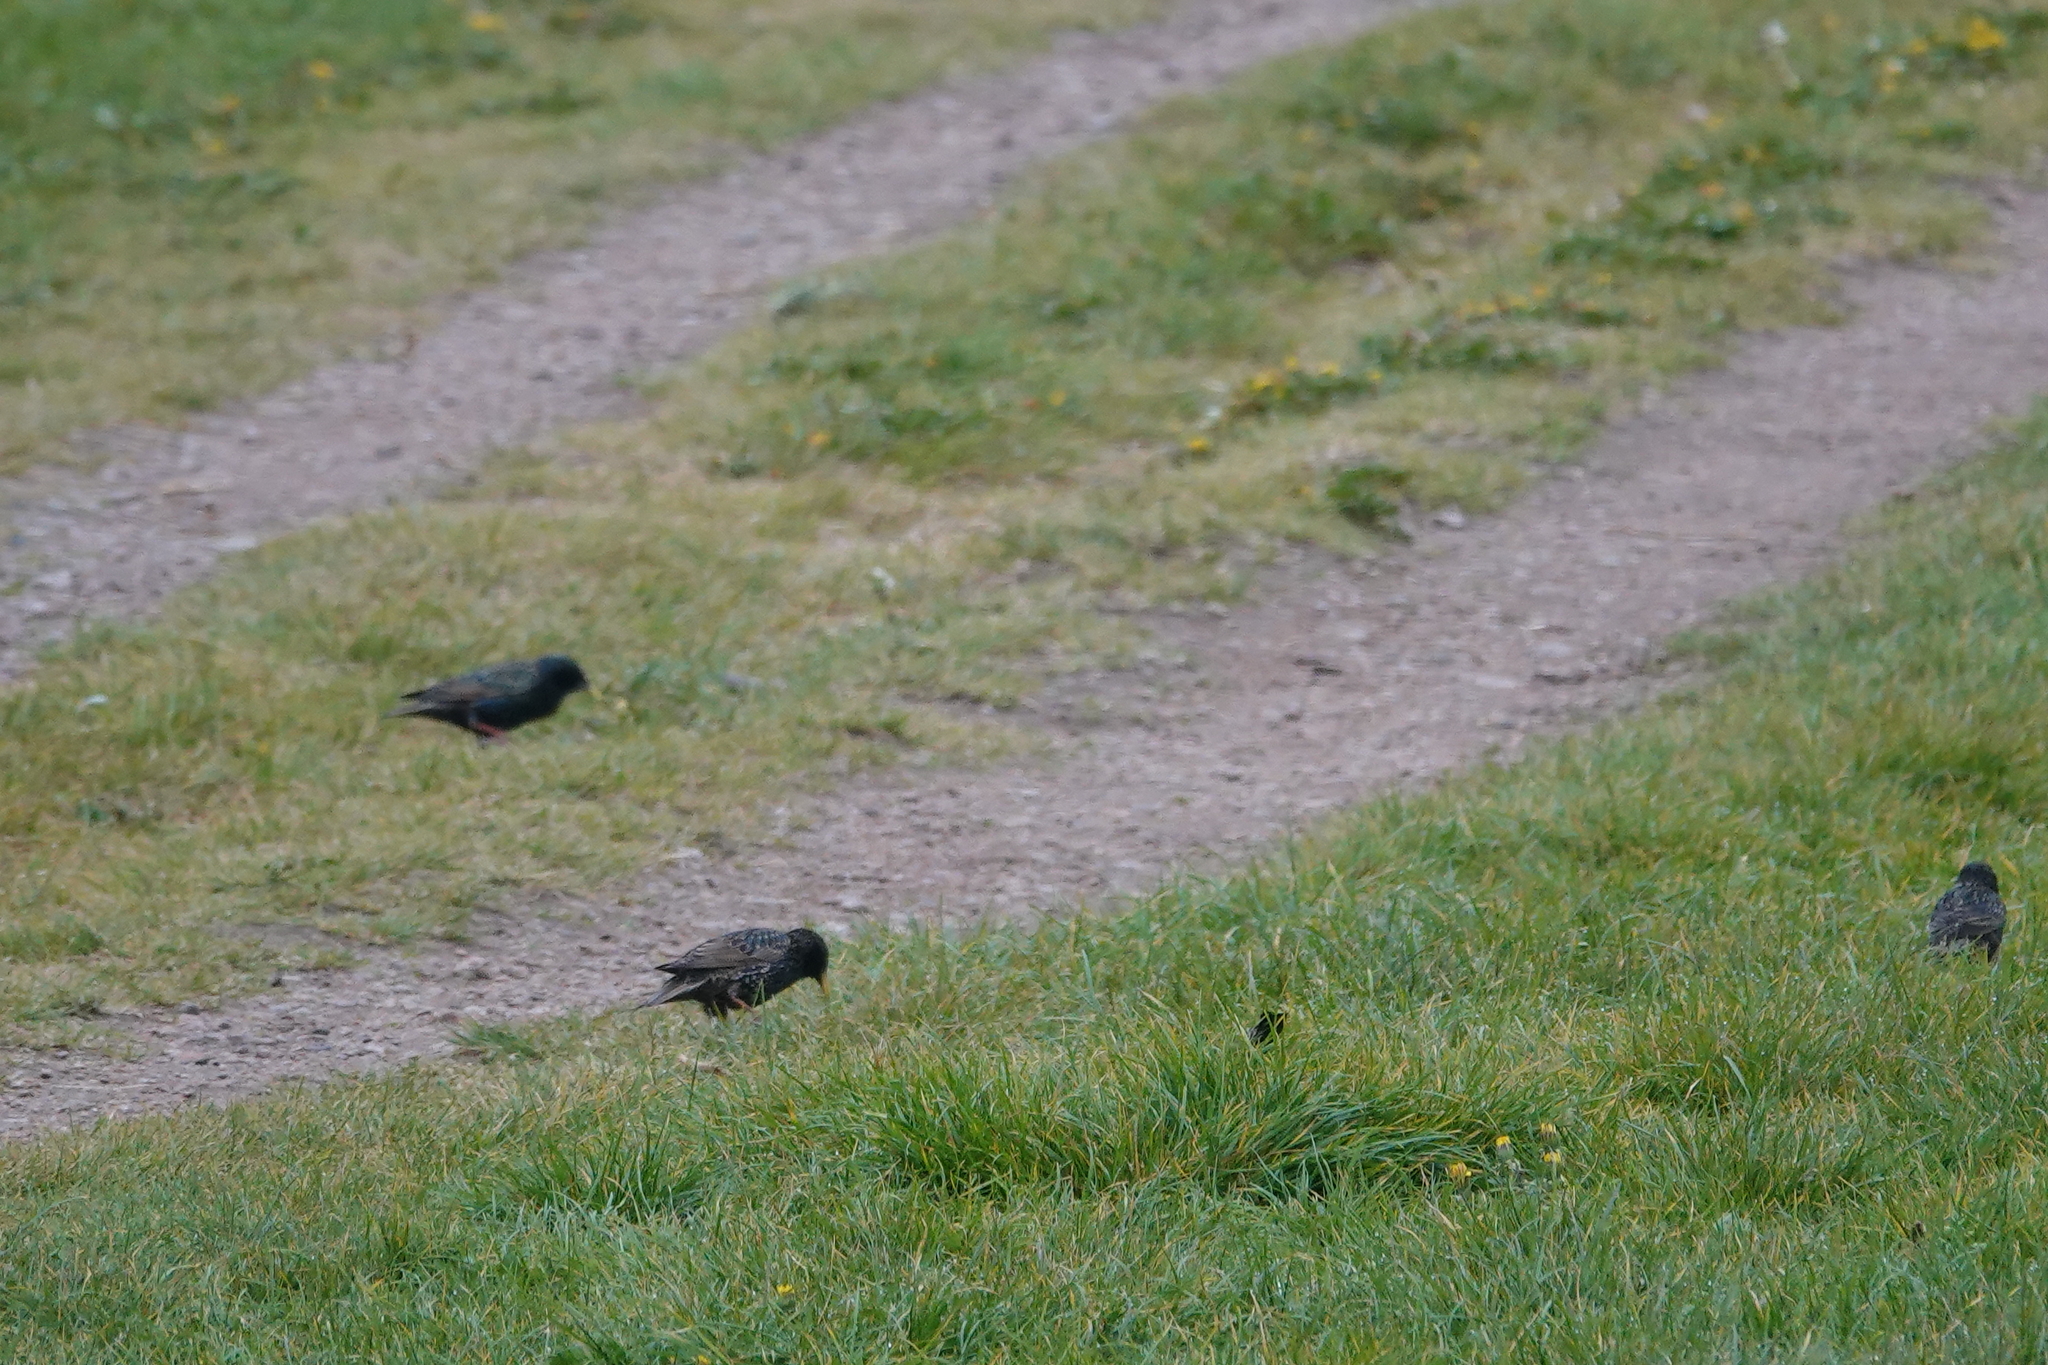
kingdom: Animalia
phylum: Chordata
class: Aves
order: Passeriformes
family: Sturnidae
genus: Sturnus
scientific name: Sturnus vulgaris
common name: Common starling
